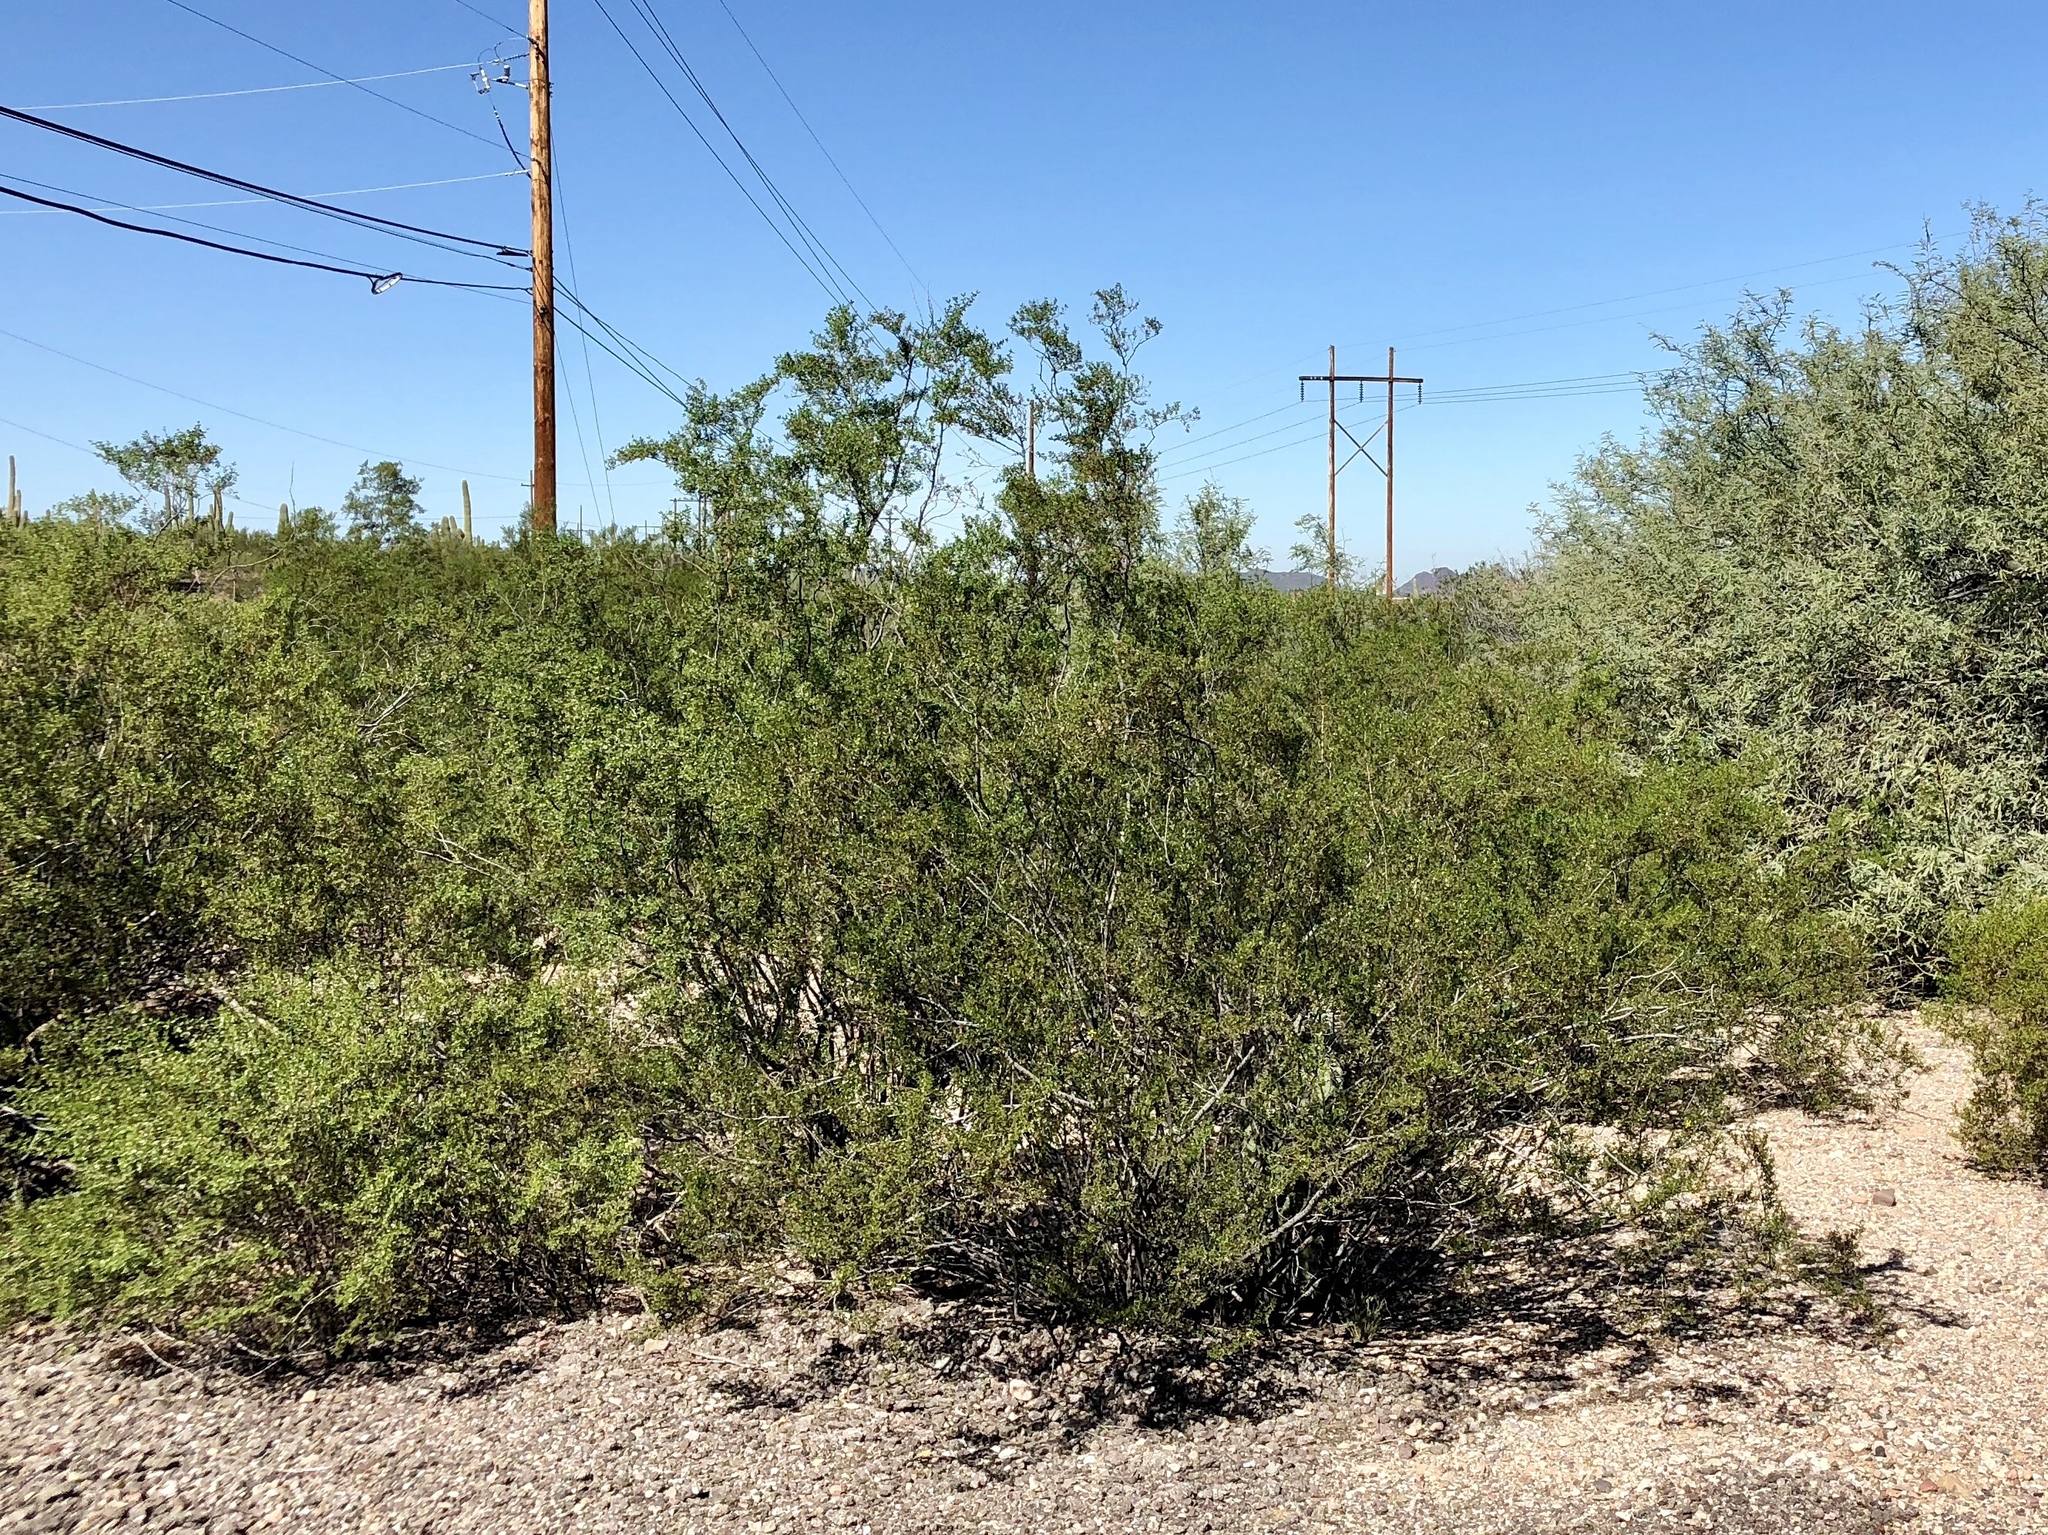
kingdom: Plantae
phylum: Tracheophyta
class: Magnoliopsida
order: Zygophyllales
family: Zygophyllaceae
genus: Larrea
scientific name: Larrea tridentata
